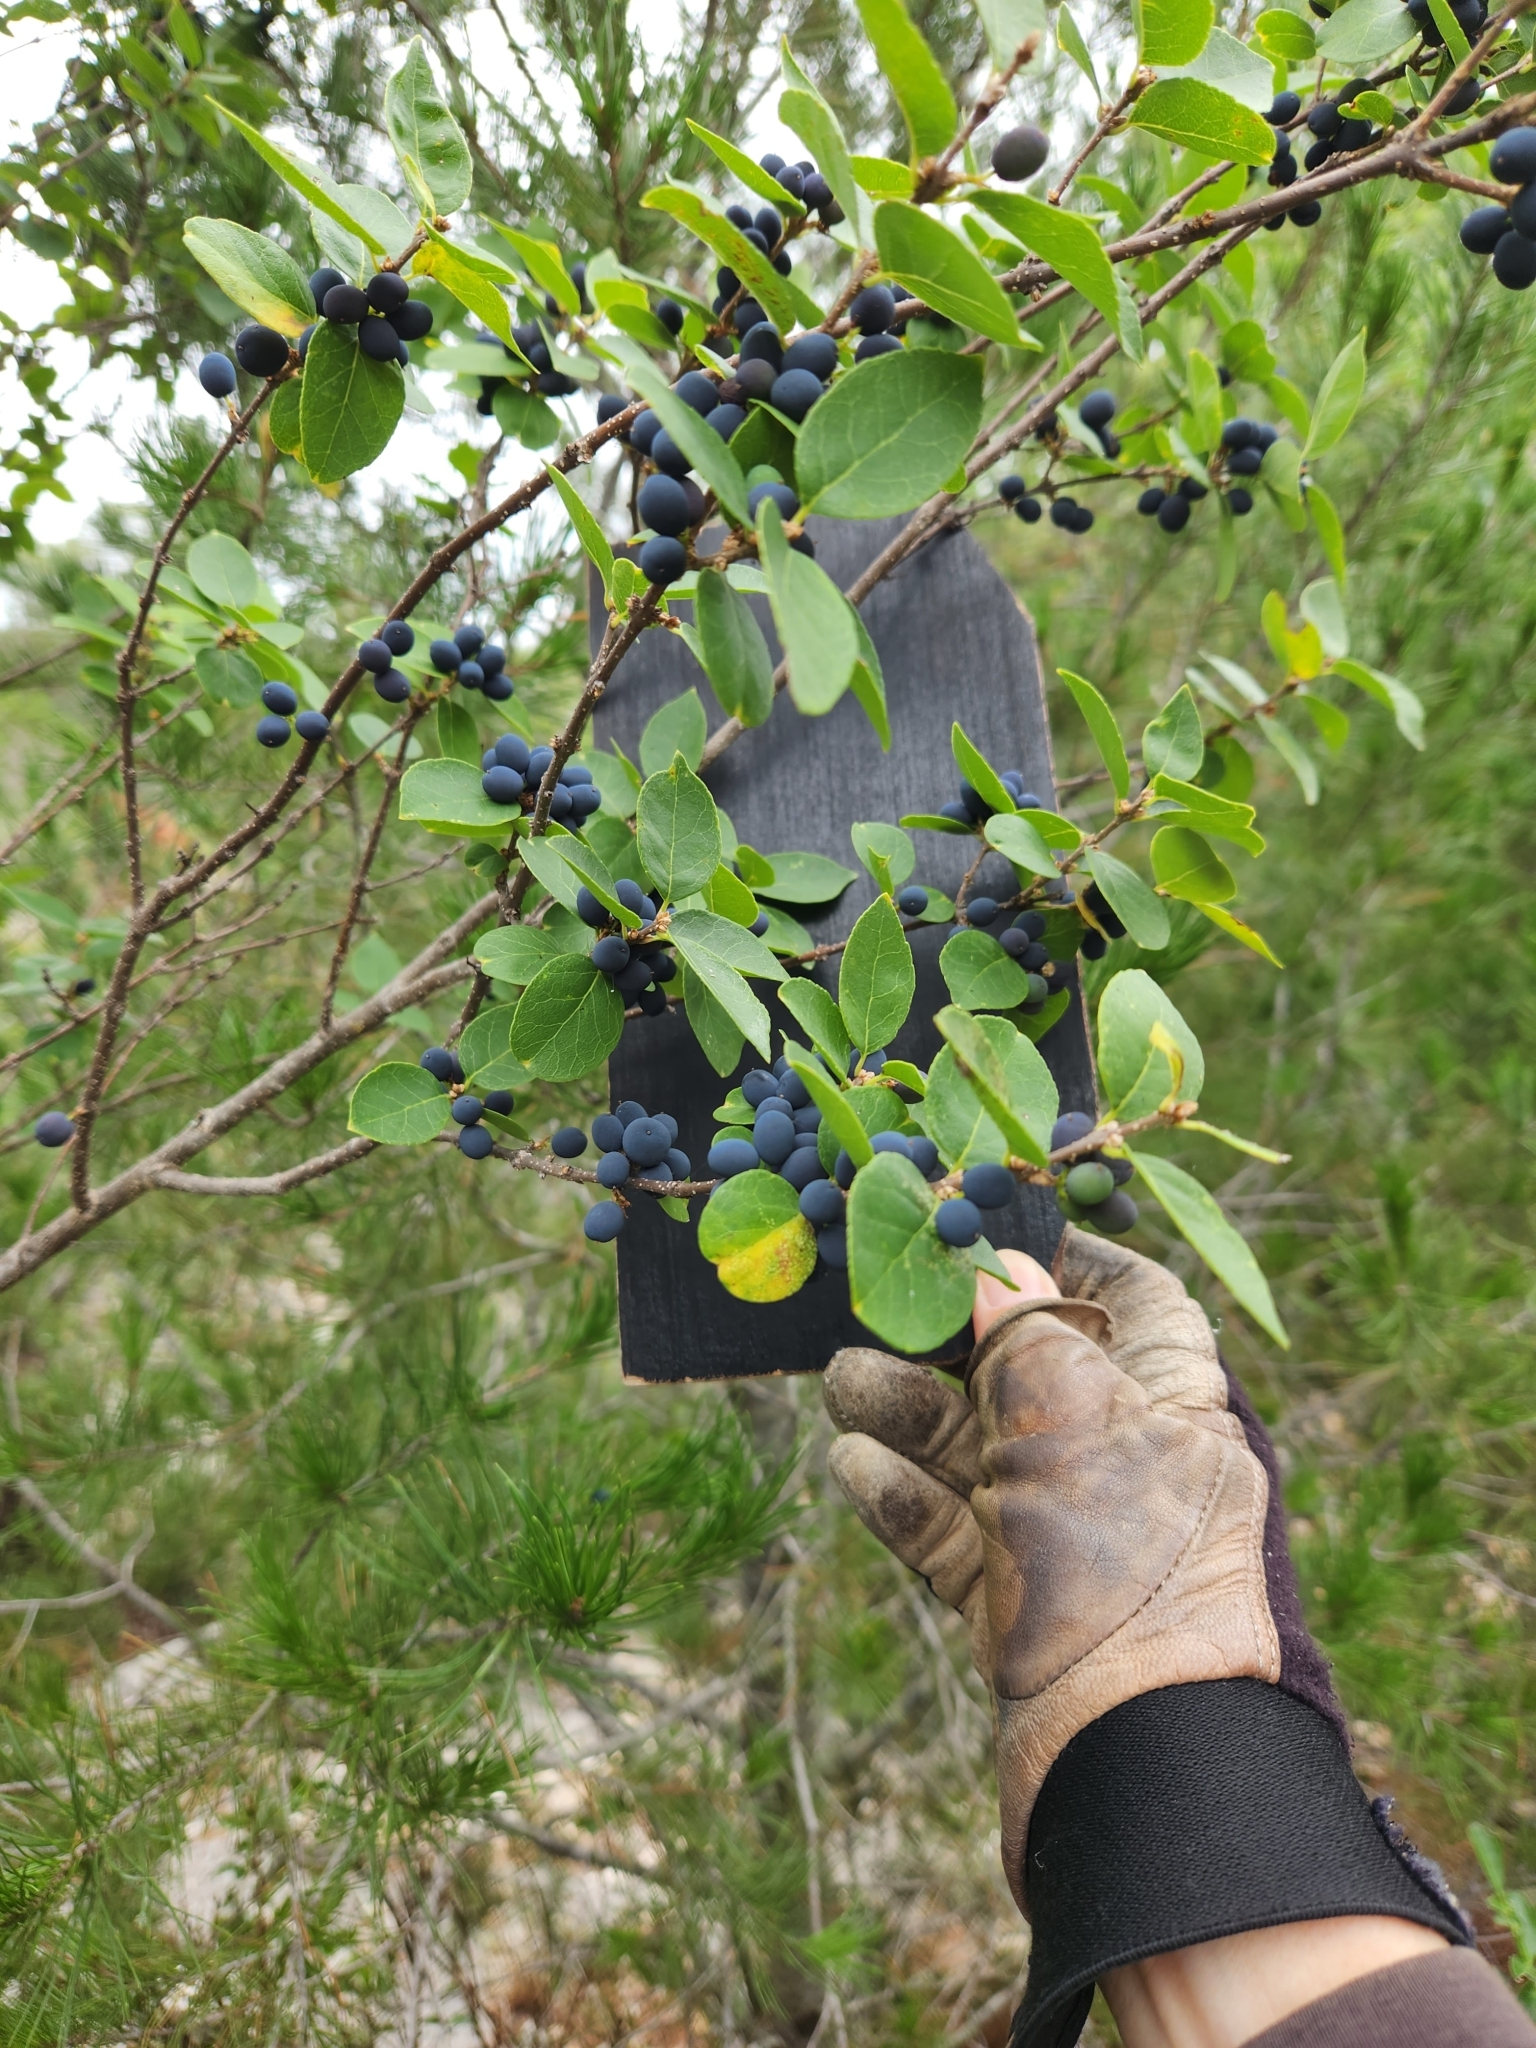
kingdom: Plantae
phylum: Tracheophyta
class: Magnoliopsida
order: Lamiales
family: Oleaceae
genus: Forestiera
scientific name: Forestiera reticulata
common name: Netleaf swamp-privet
